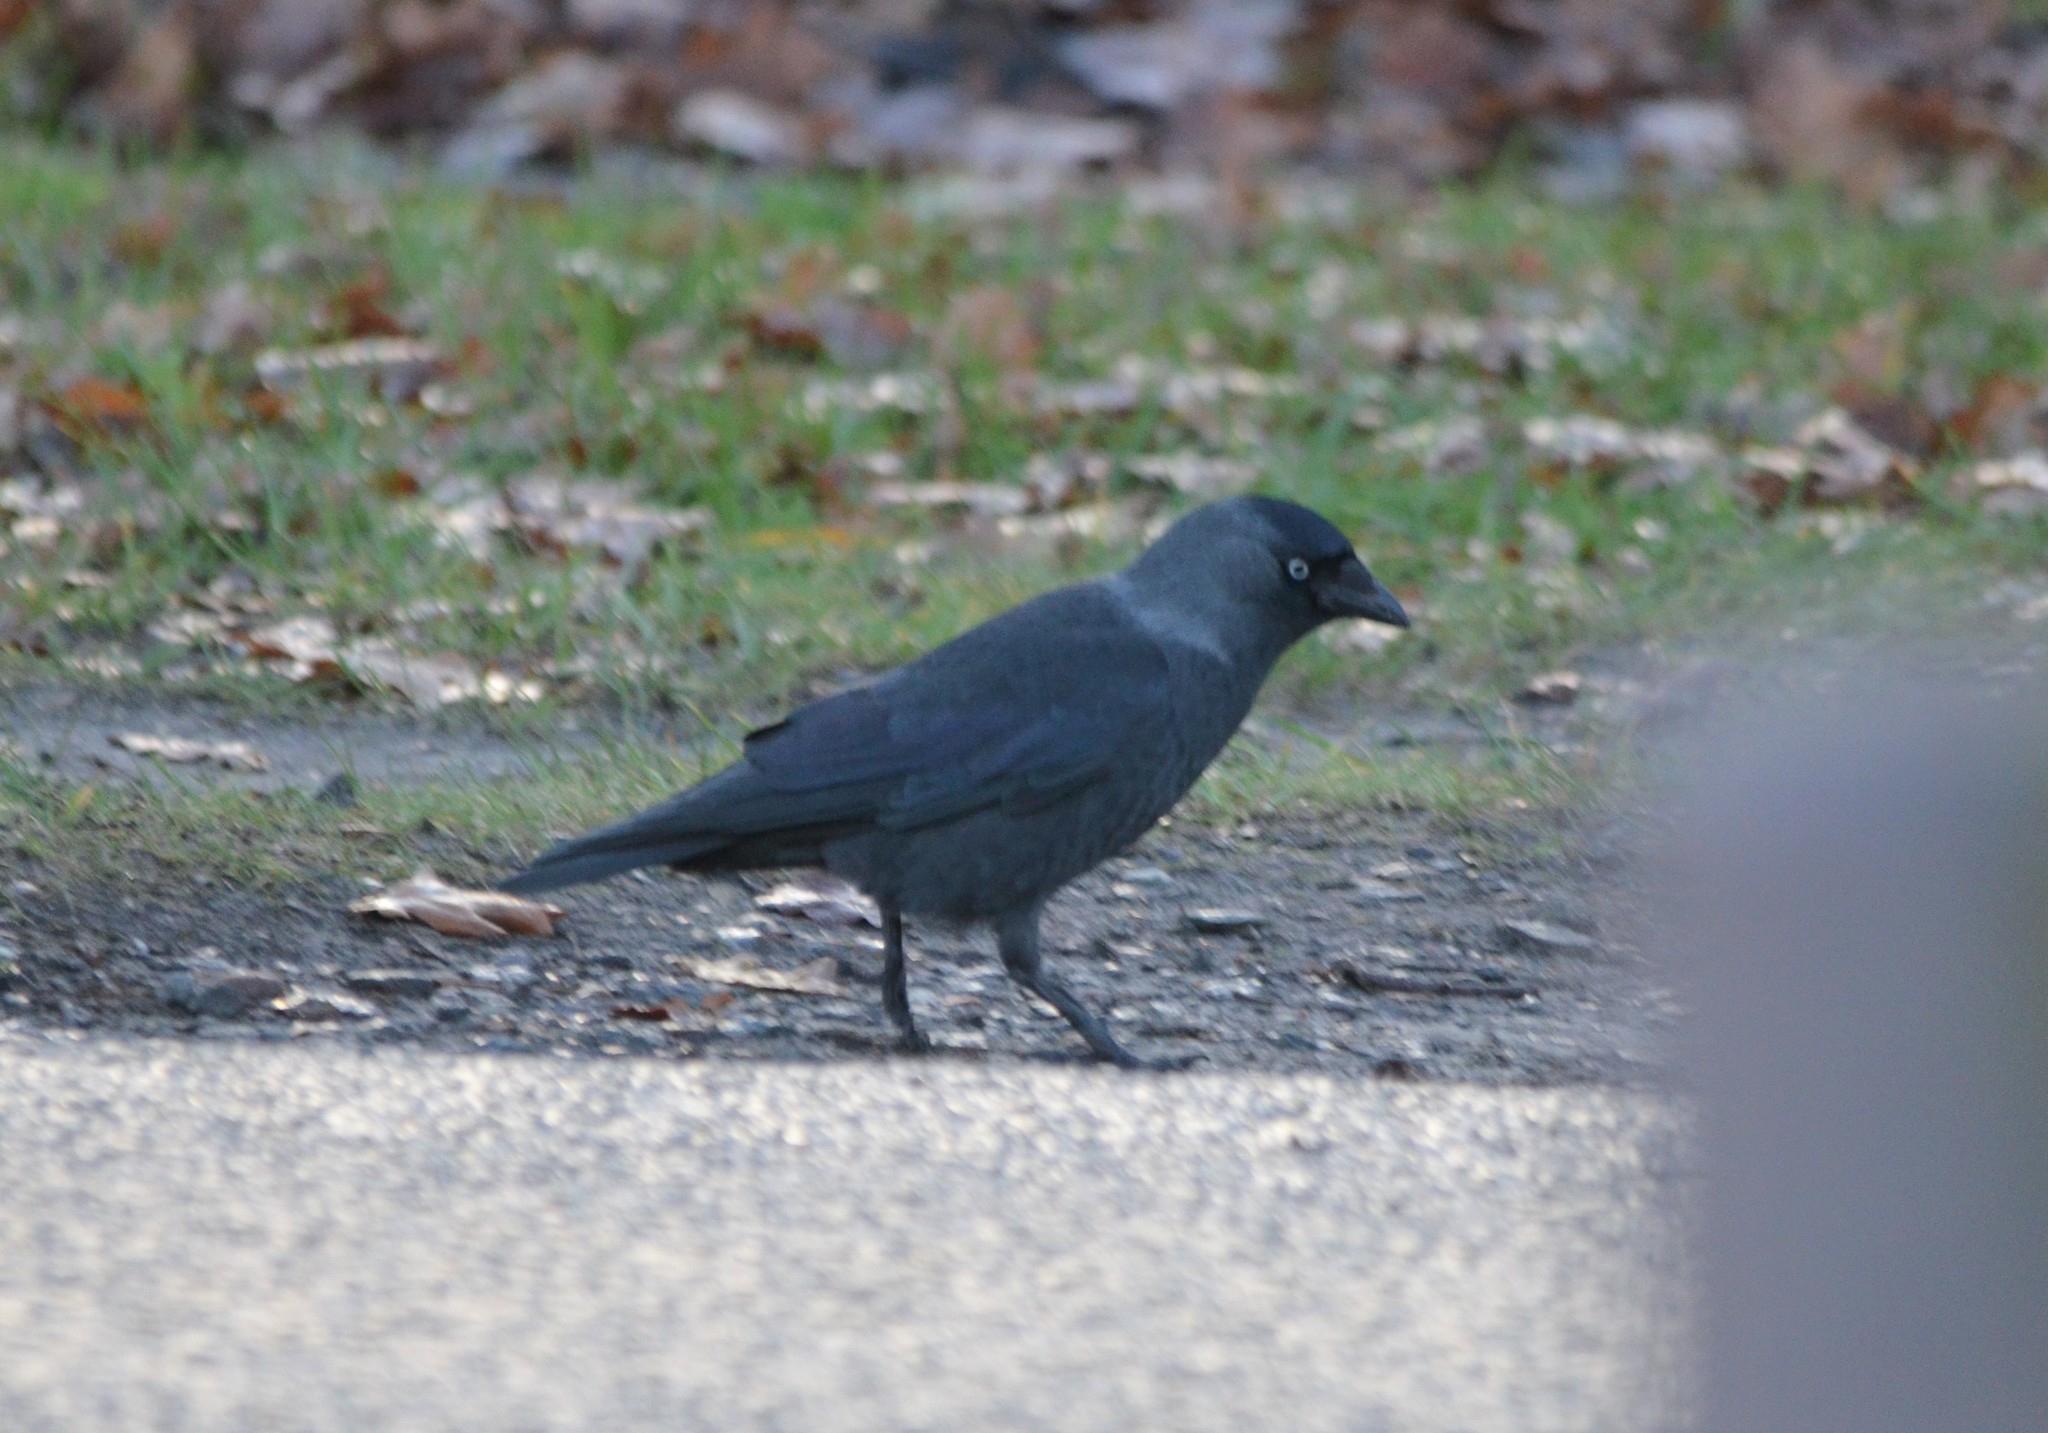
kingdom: Animalia
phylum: Chordata
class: Aves
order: Passeriformes
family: Corvidae
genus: Coloeus
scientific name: Coloeus monedula
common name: Western jackdaw
